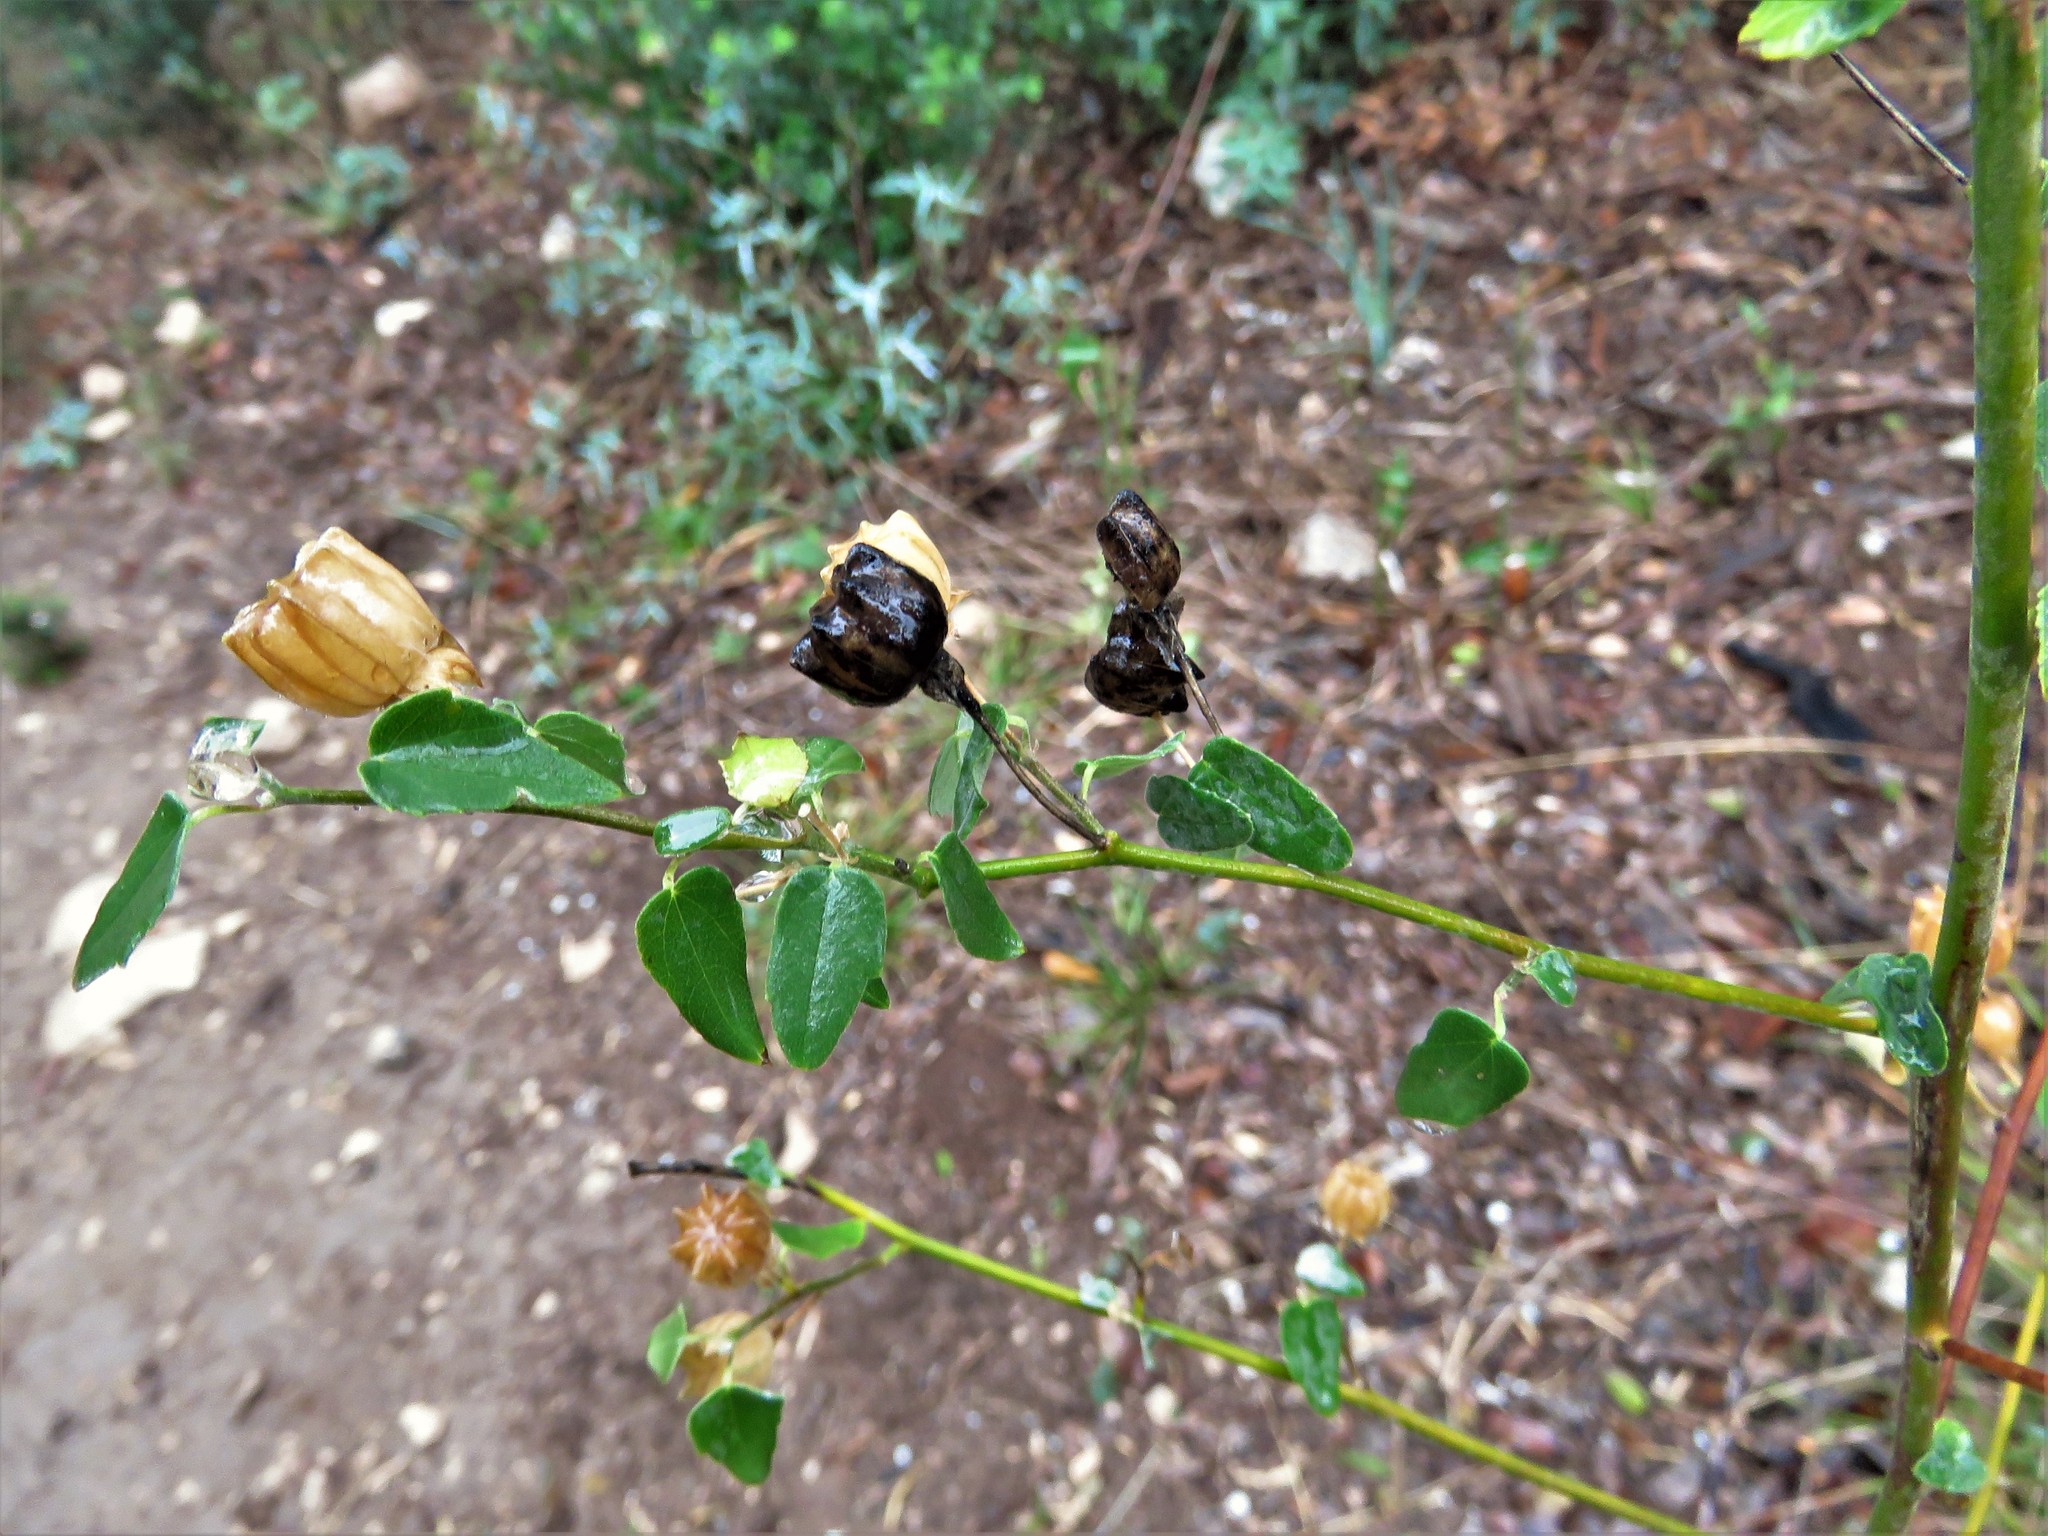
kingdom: Plantae
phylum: Tracheophyta
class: Magnoliopsida
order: Malvales
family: Malvaceae
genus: Abutilon
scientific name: Abutilon fruticosum
